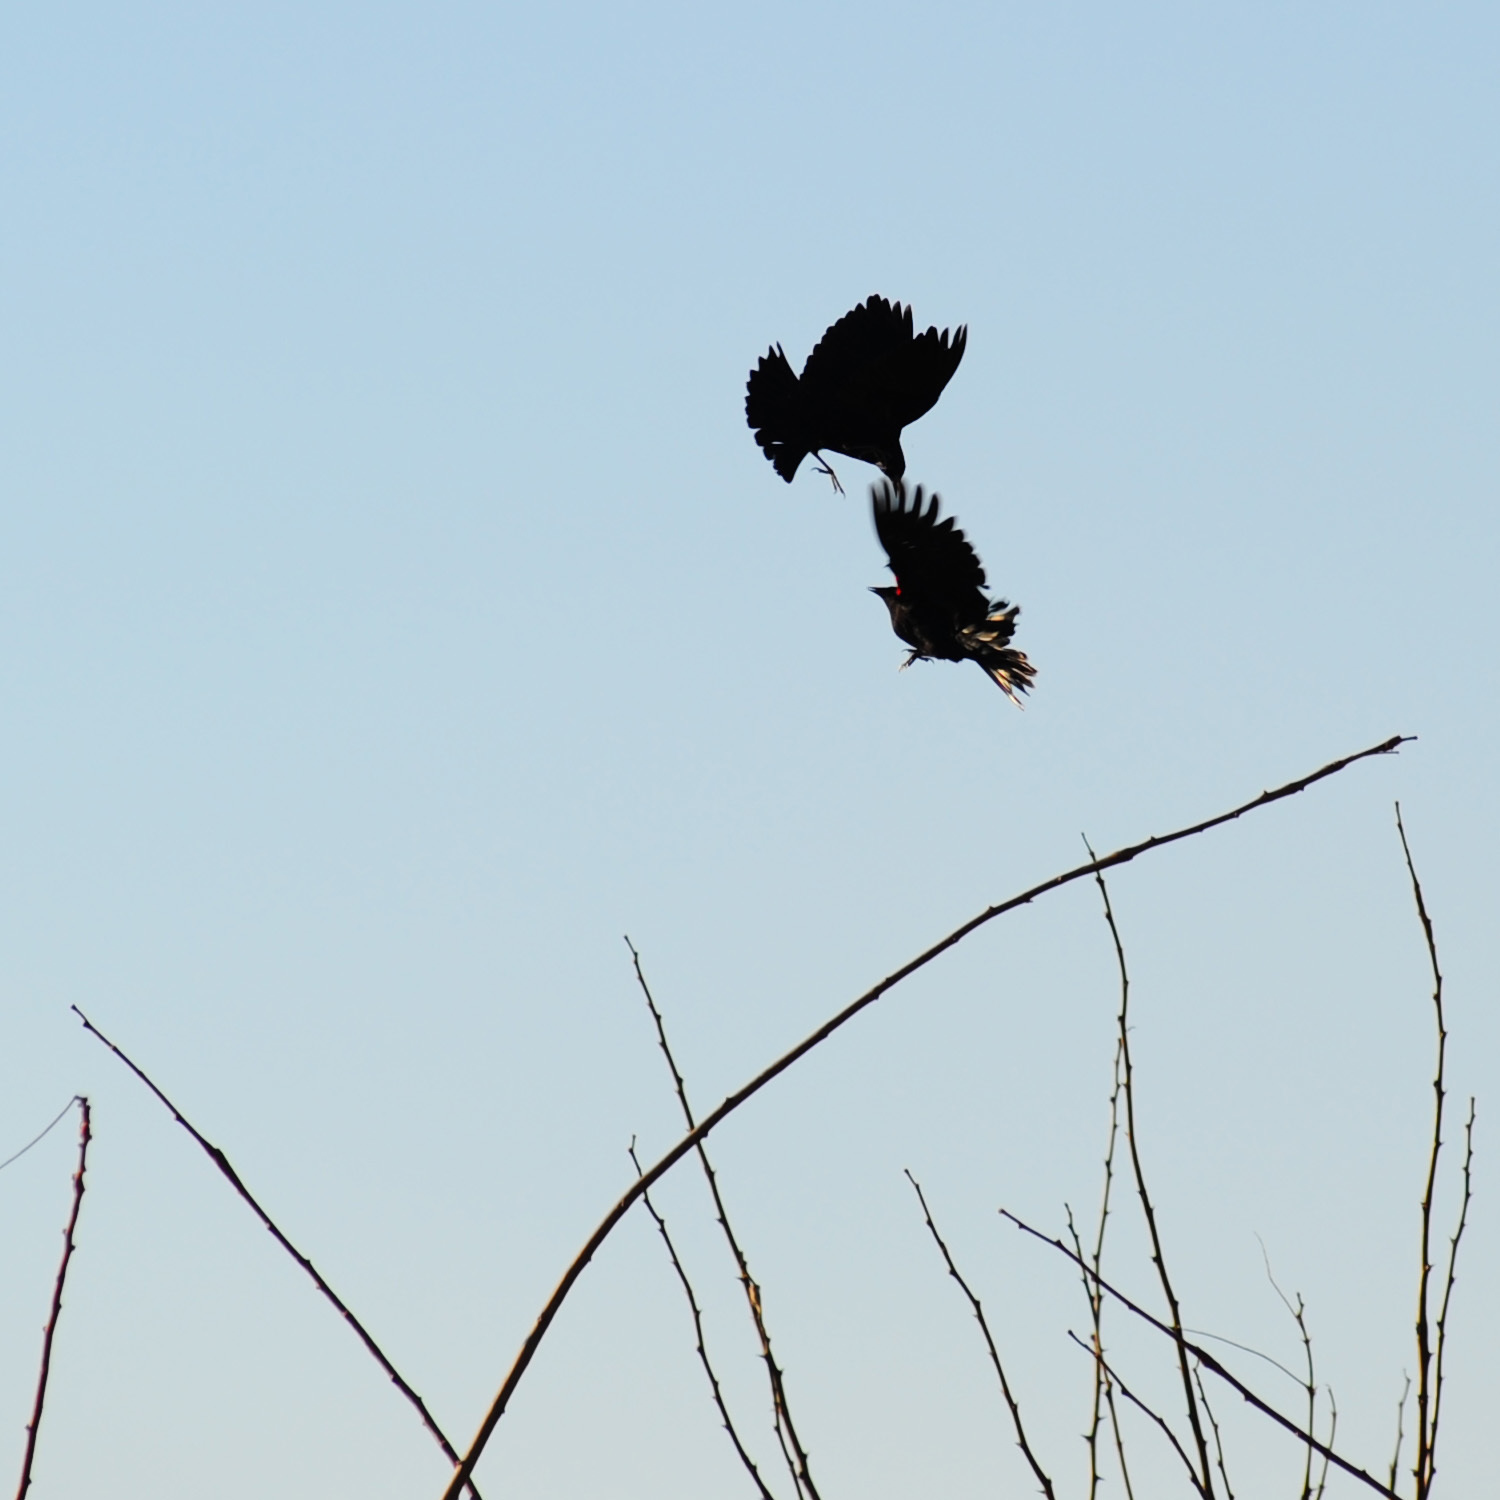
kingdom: Animalia
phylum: Chordata
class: Aves
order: Passeriformes
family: Icteridae
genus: Agelaius
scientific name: Agelaius phoeniceus
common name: Red-winged blackbird
